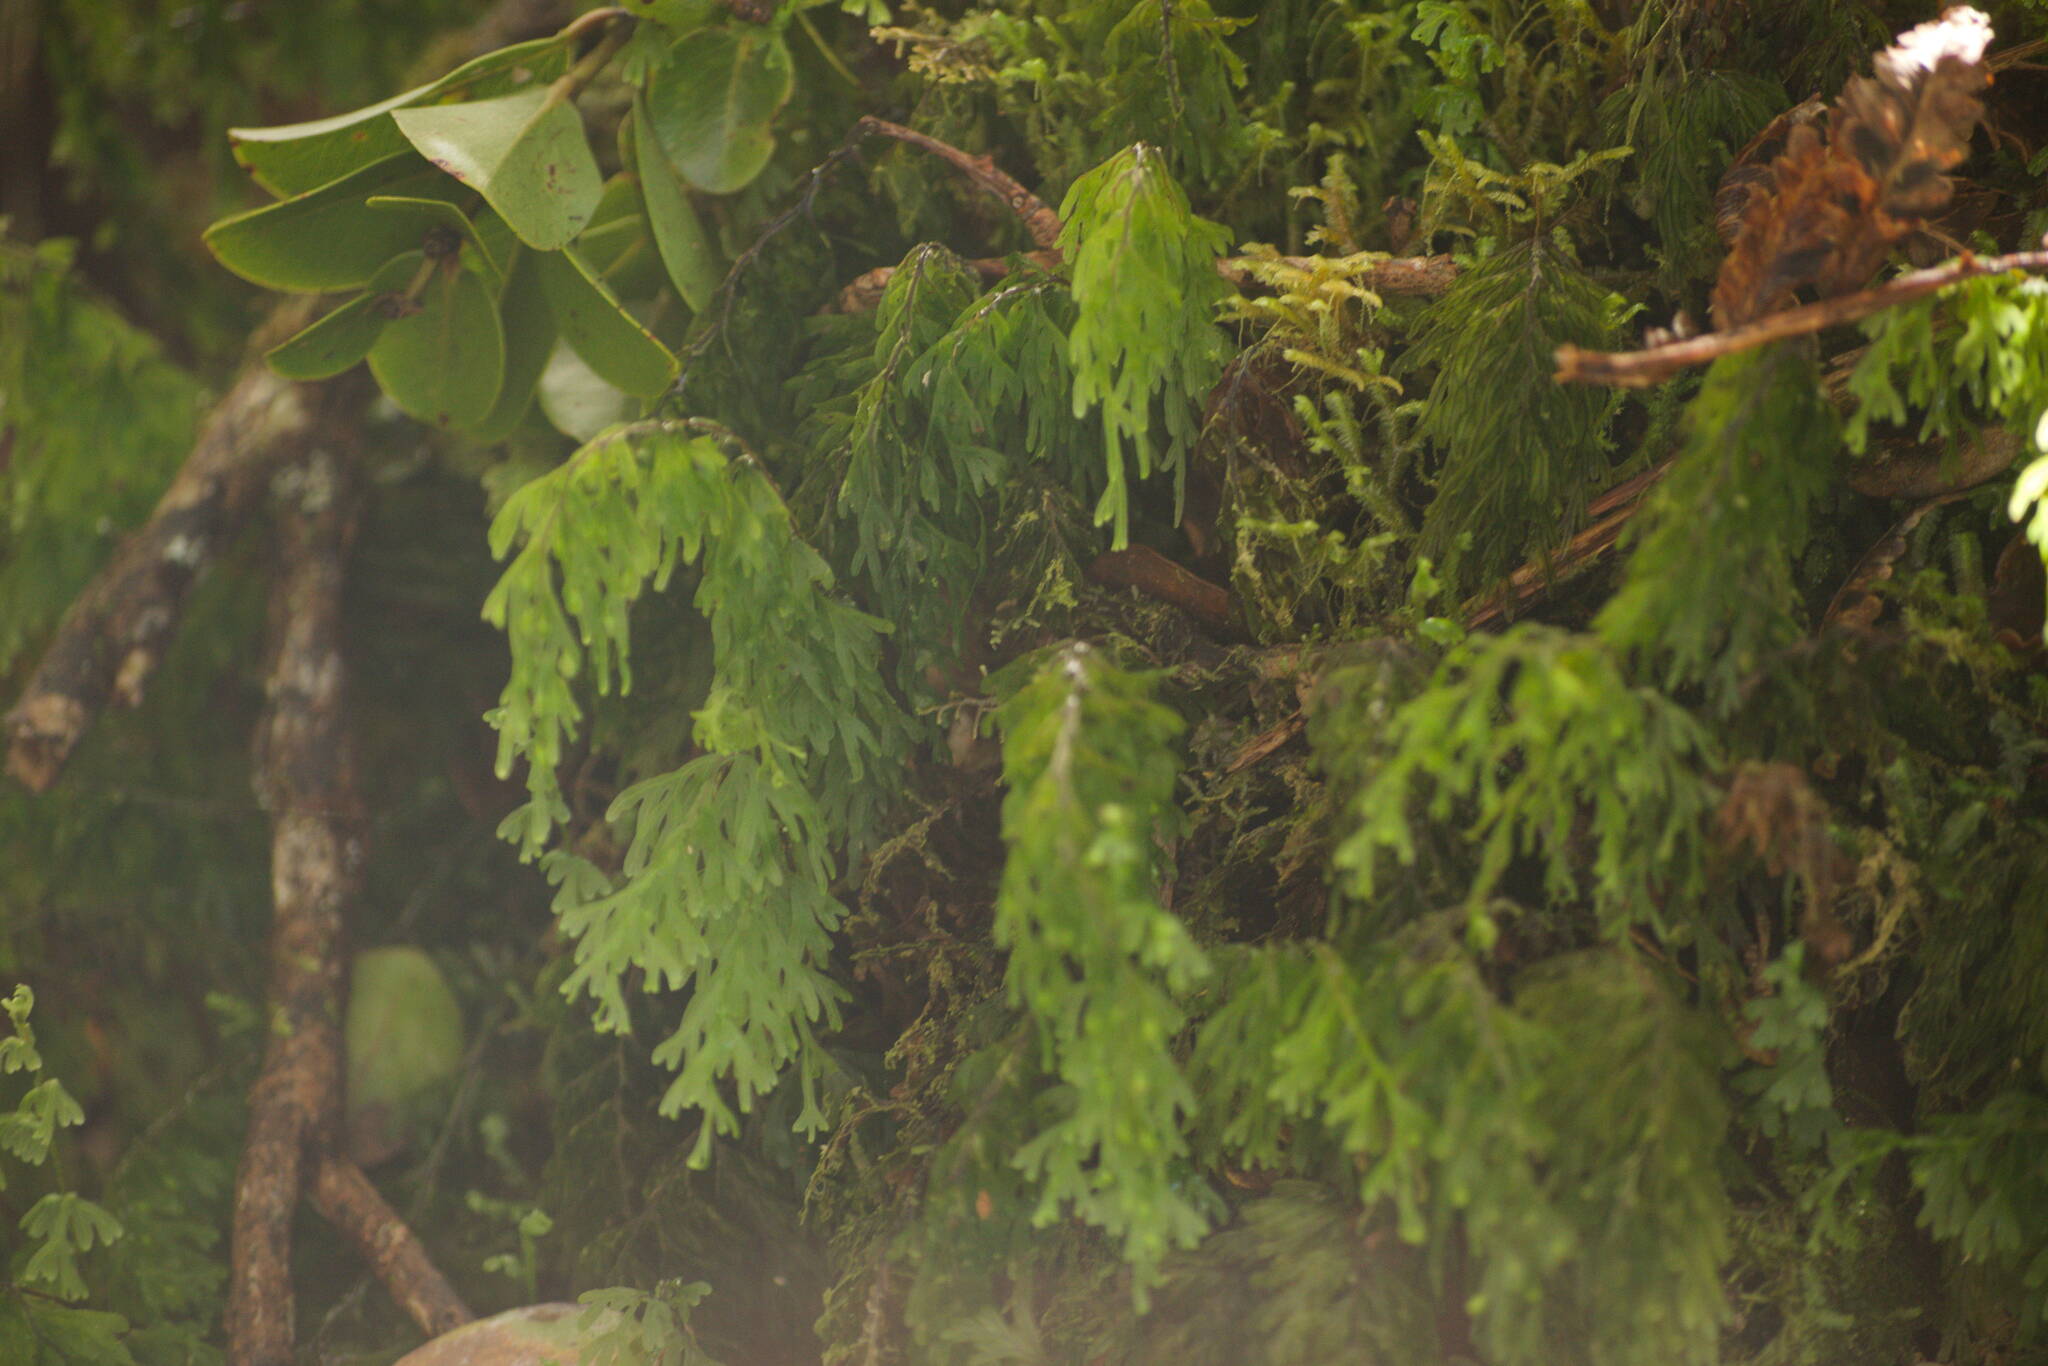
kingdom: Plantae
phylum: Tracheophyta
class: Polypodiopsida
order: Hymenophyllales
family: Hymenophyllaceae
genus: Hymenophyllum
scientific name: Hymenophyllum recurvum
